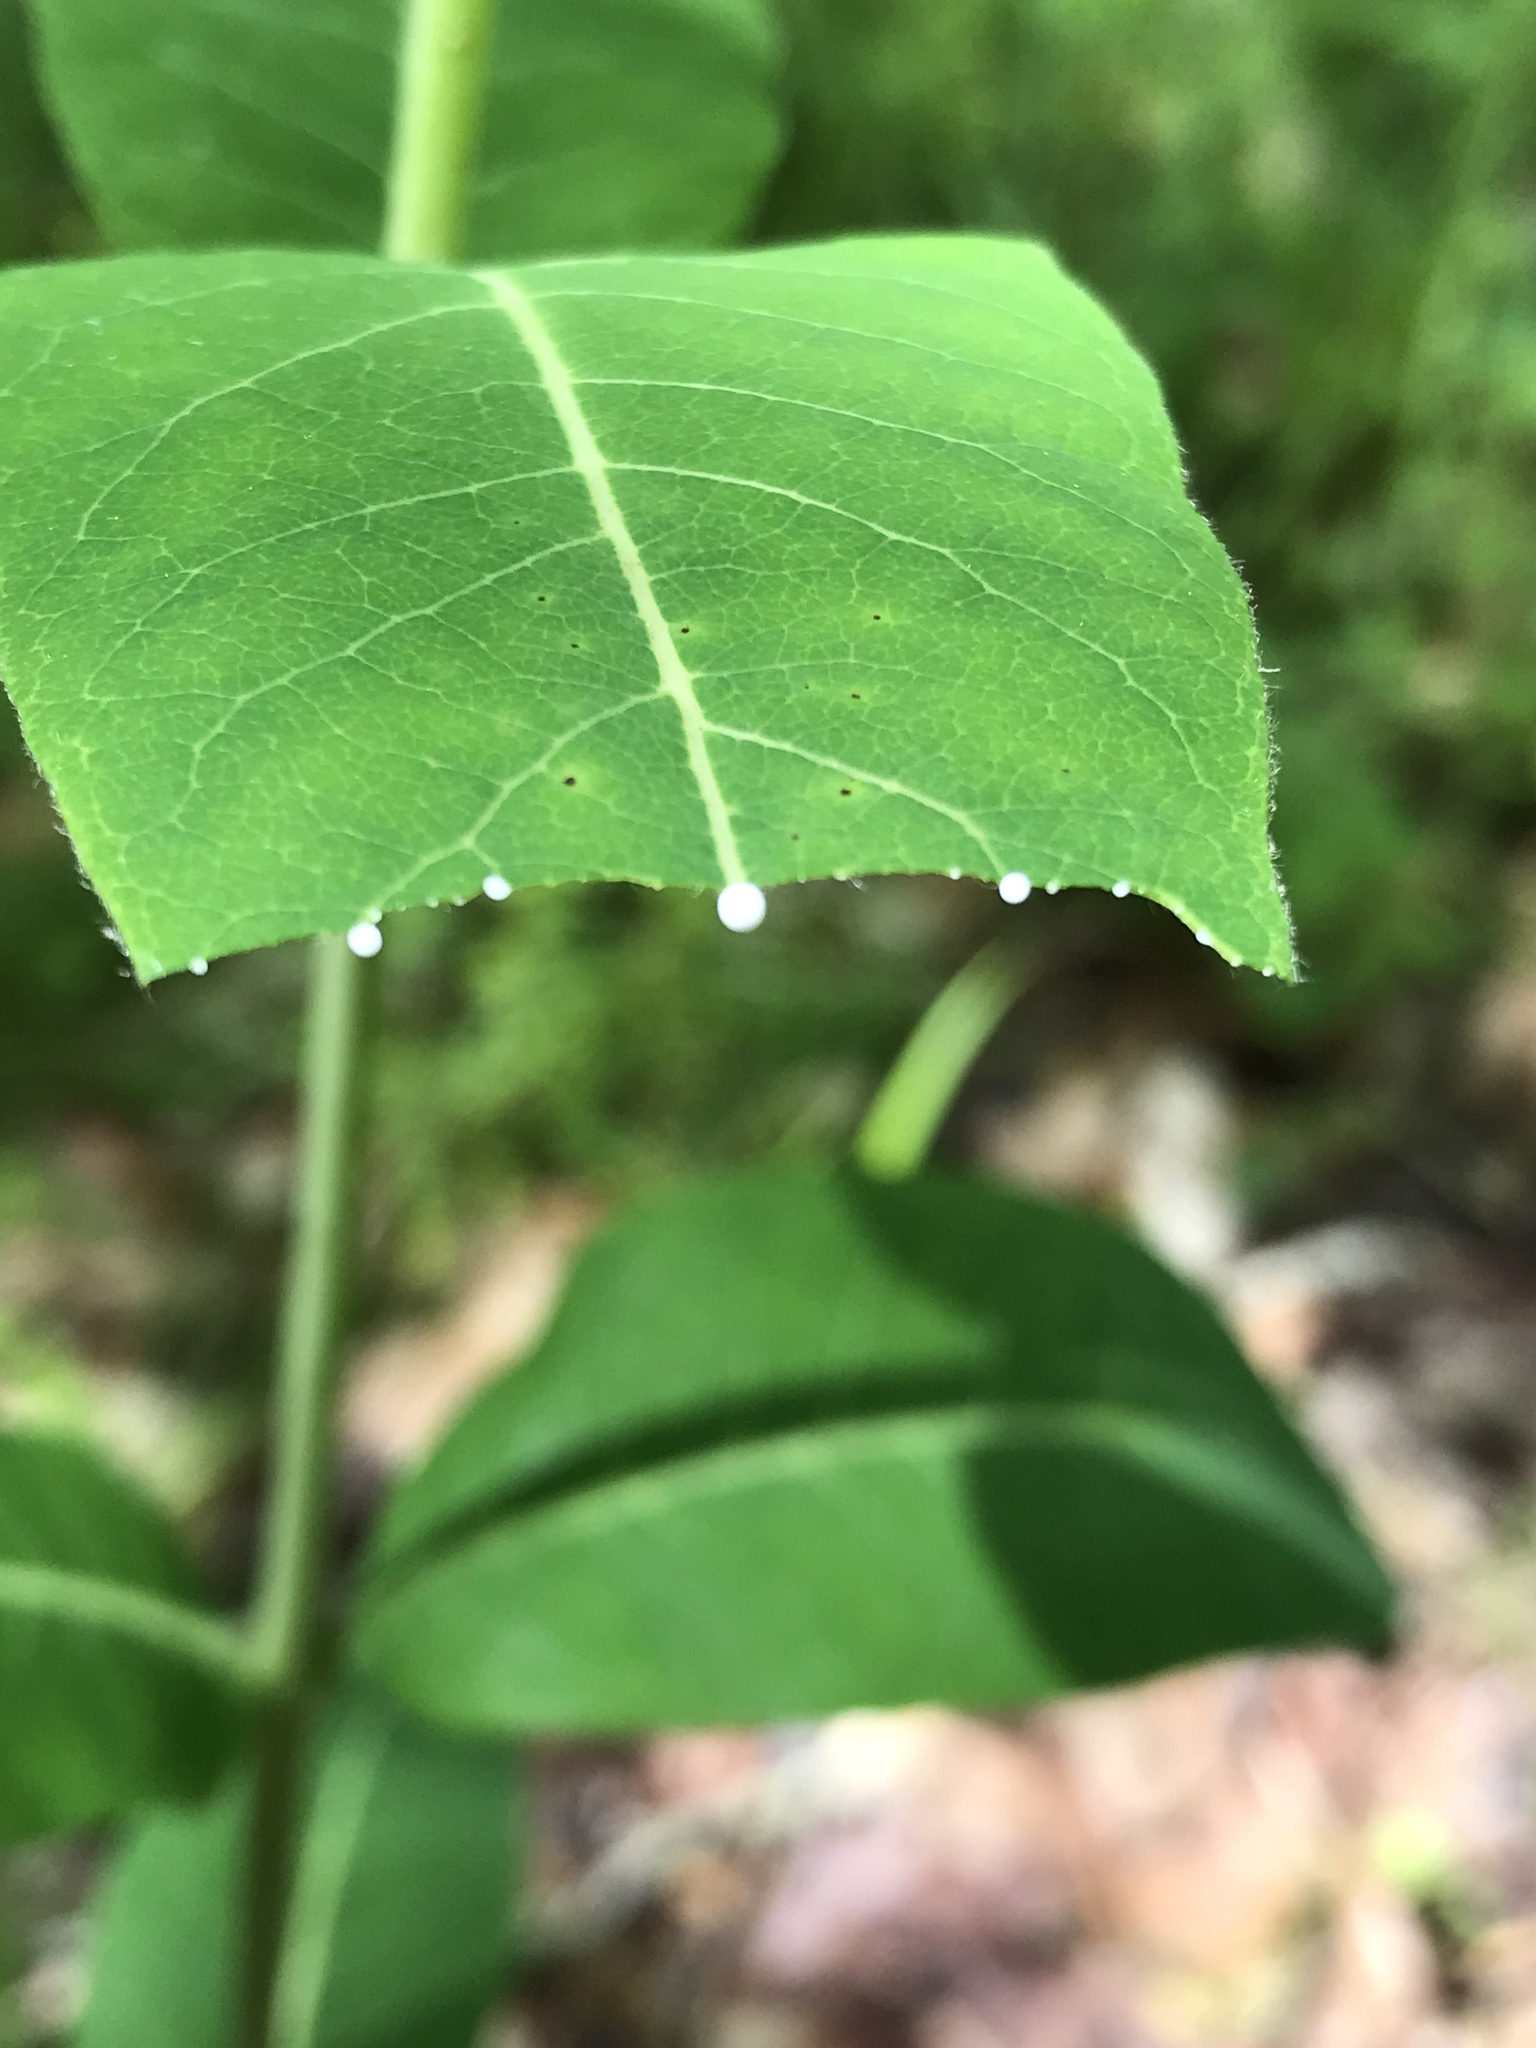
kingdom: Plantae
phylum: Tracheophyta
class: Magnoliopsida
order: Gentianales
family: Apocynaceae
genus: Apocynum
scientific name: Apocynum cannabinum
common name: Hemp dogbane
